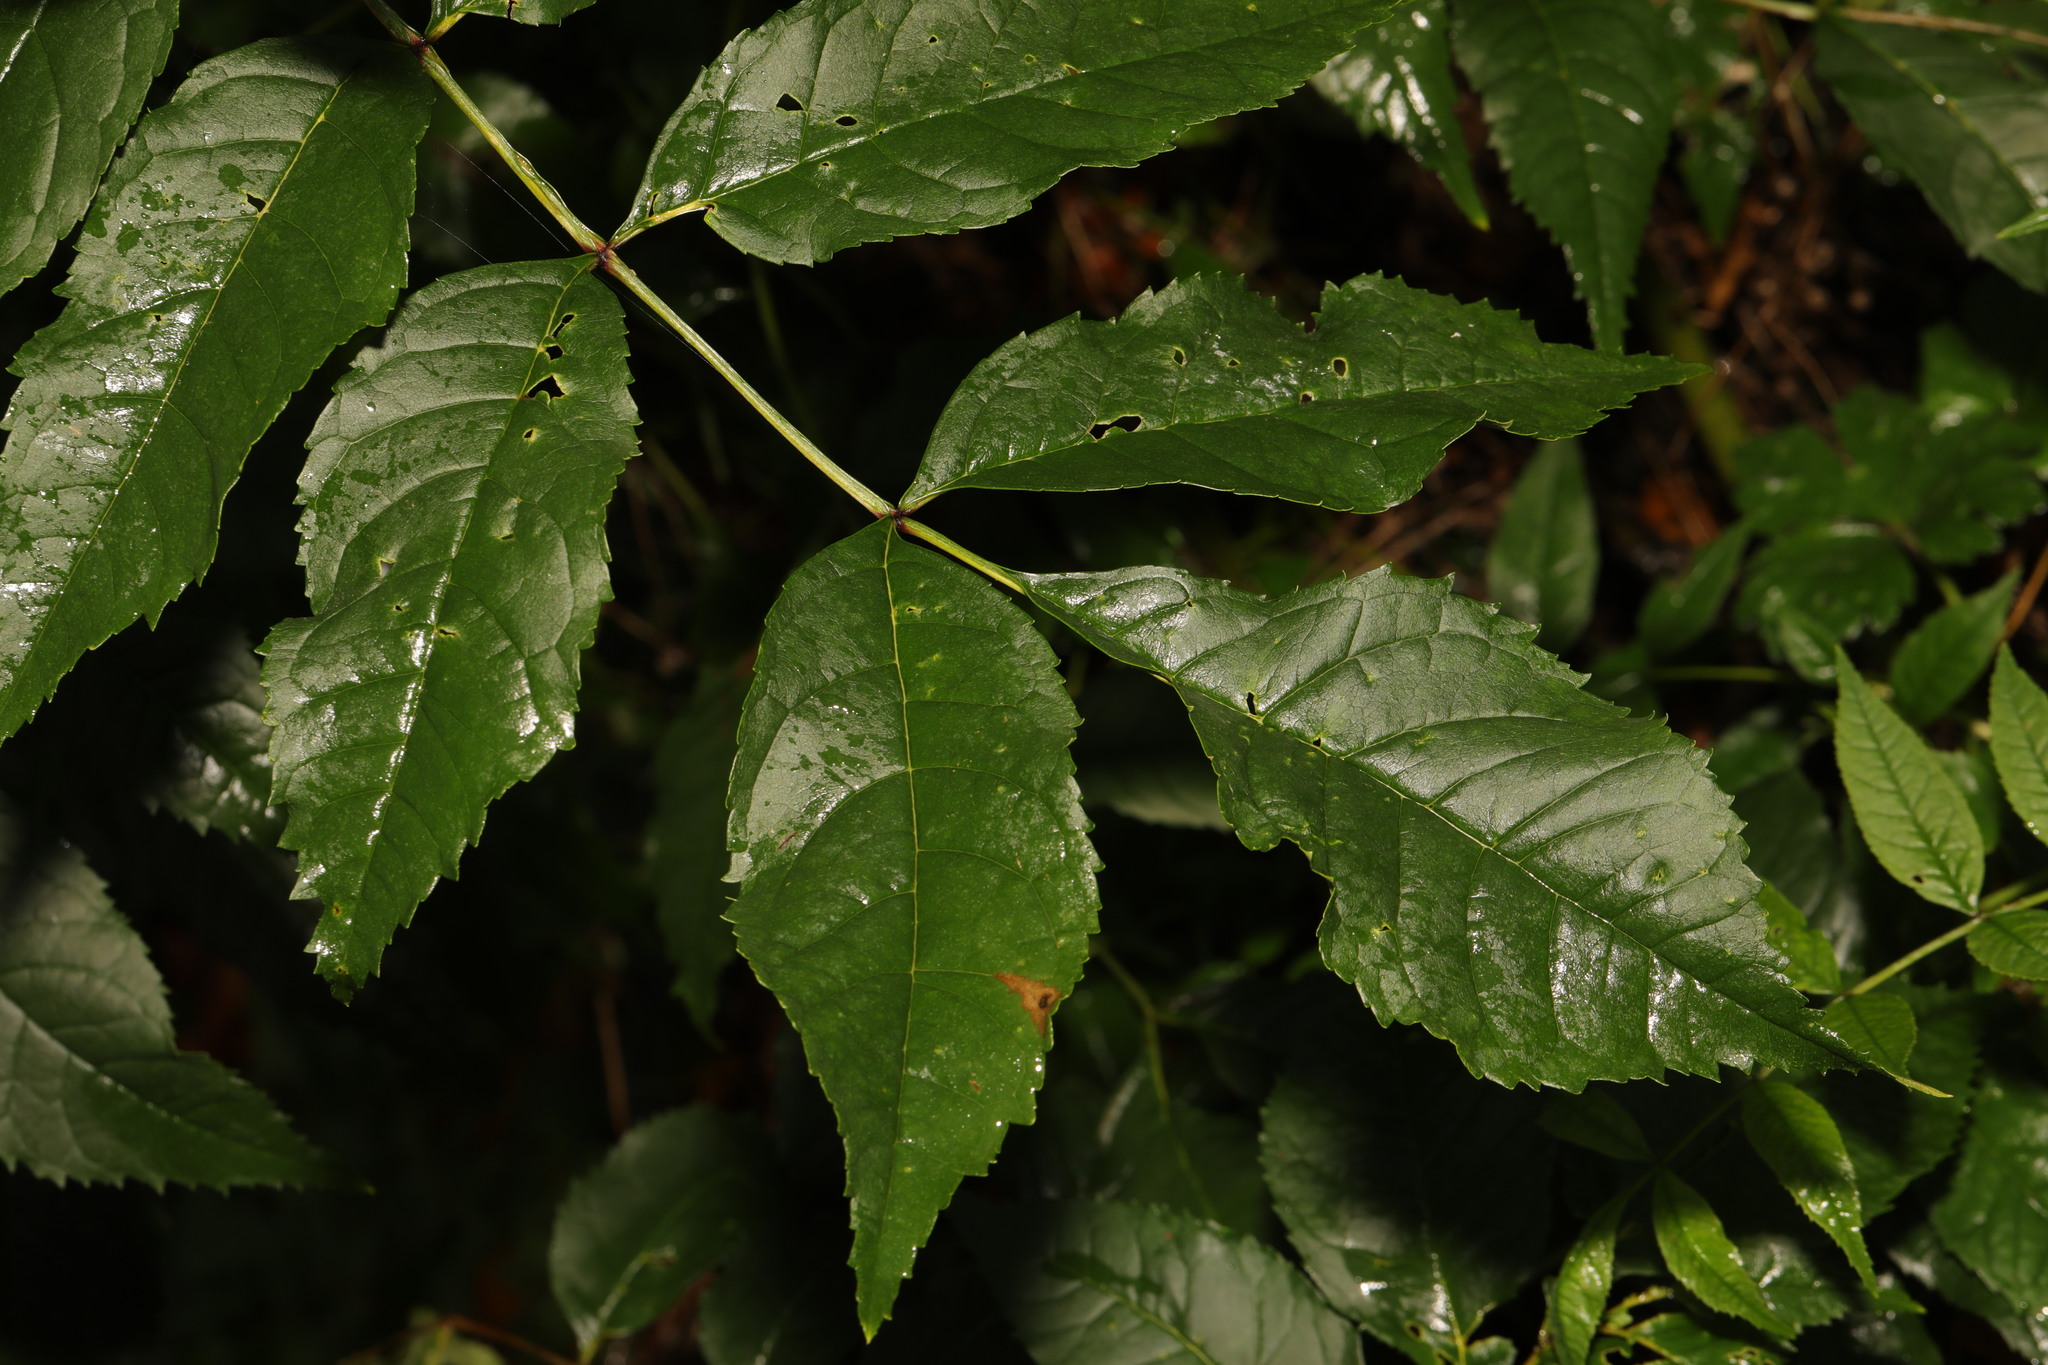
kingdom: Plantae
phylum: Tracheophyta
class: Magnoliopsida
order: Lamiales
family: Oleaceae
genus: Fraxinus
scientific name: Fraxinus excelsior
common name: European ash
